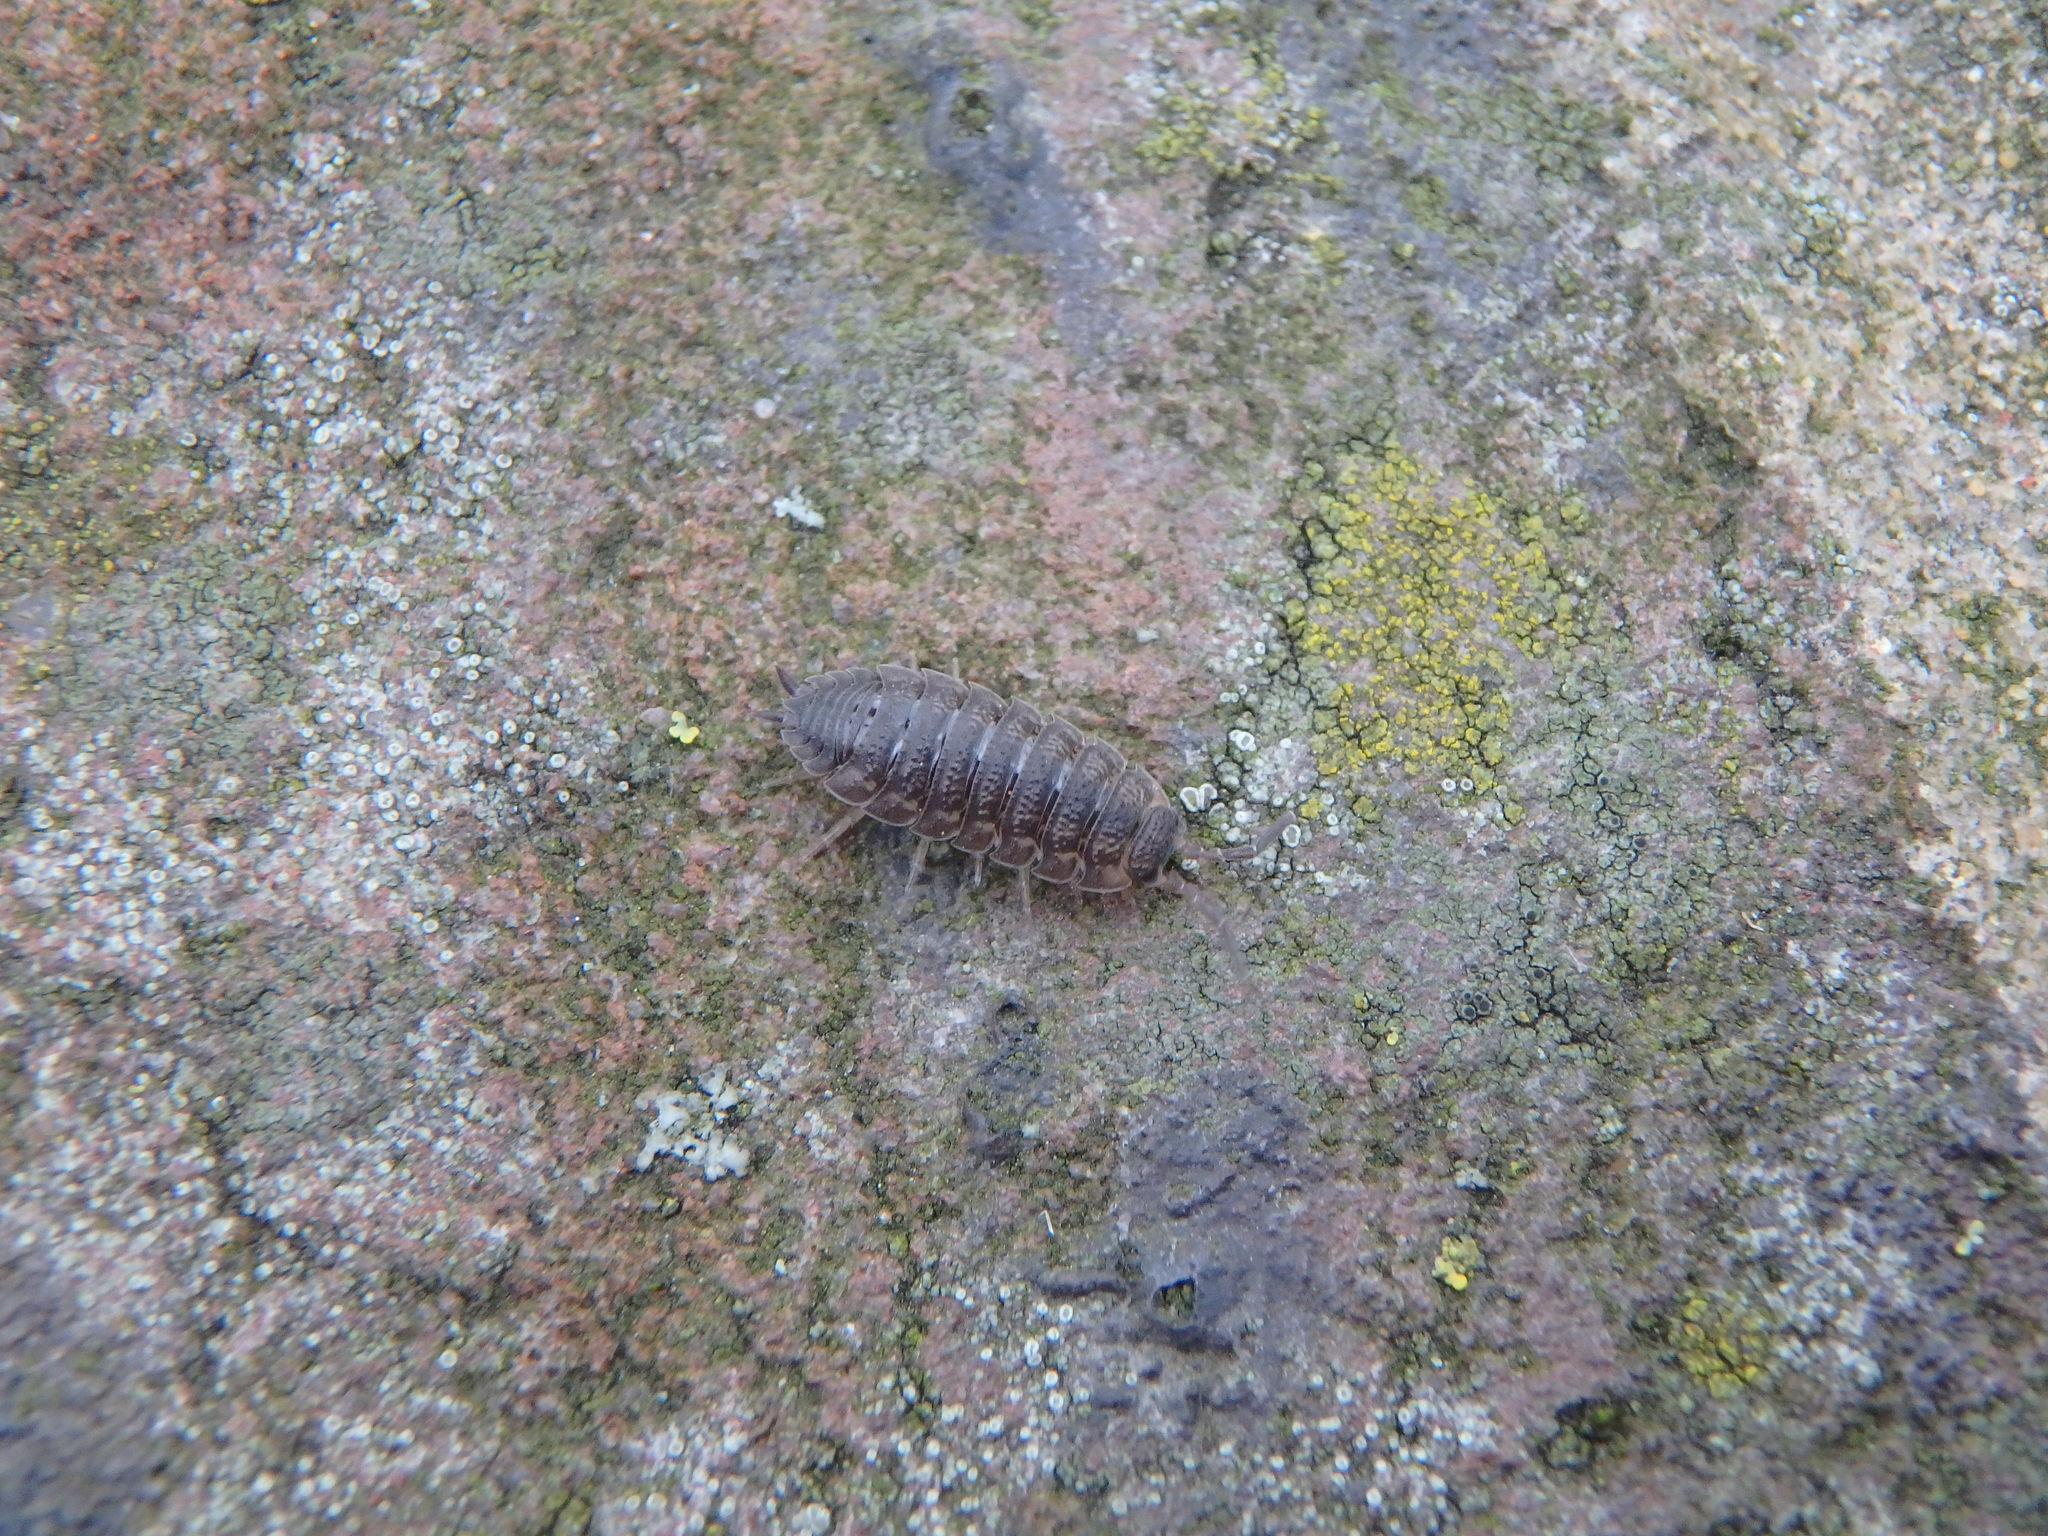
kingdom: Animalia
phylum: Arthropoda
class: Malacostraca
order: Isopoda
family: Porcellionidae
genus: Porcellio
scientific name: Porcellio scaber
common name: Common rough woodlouse
